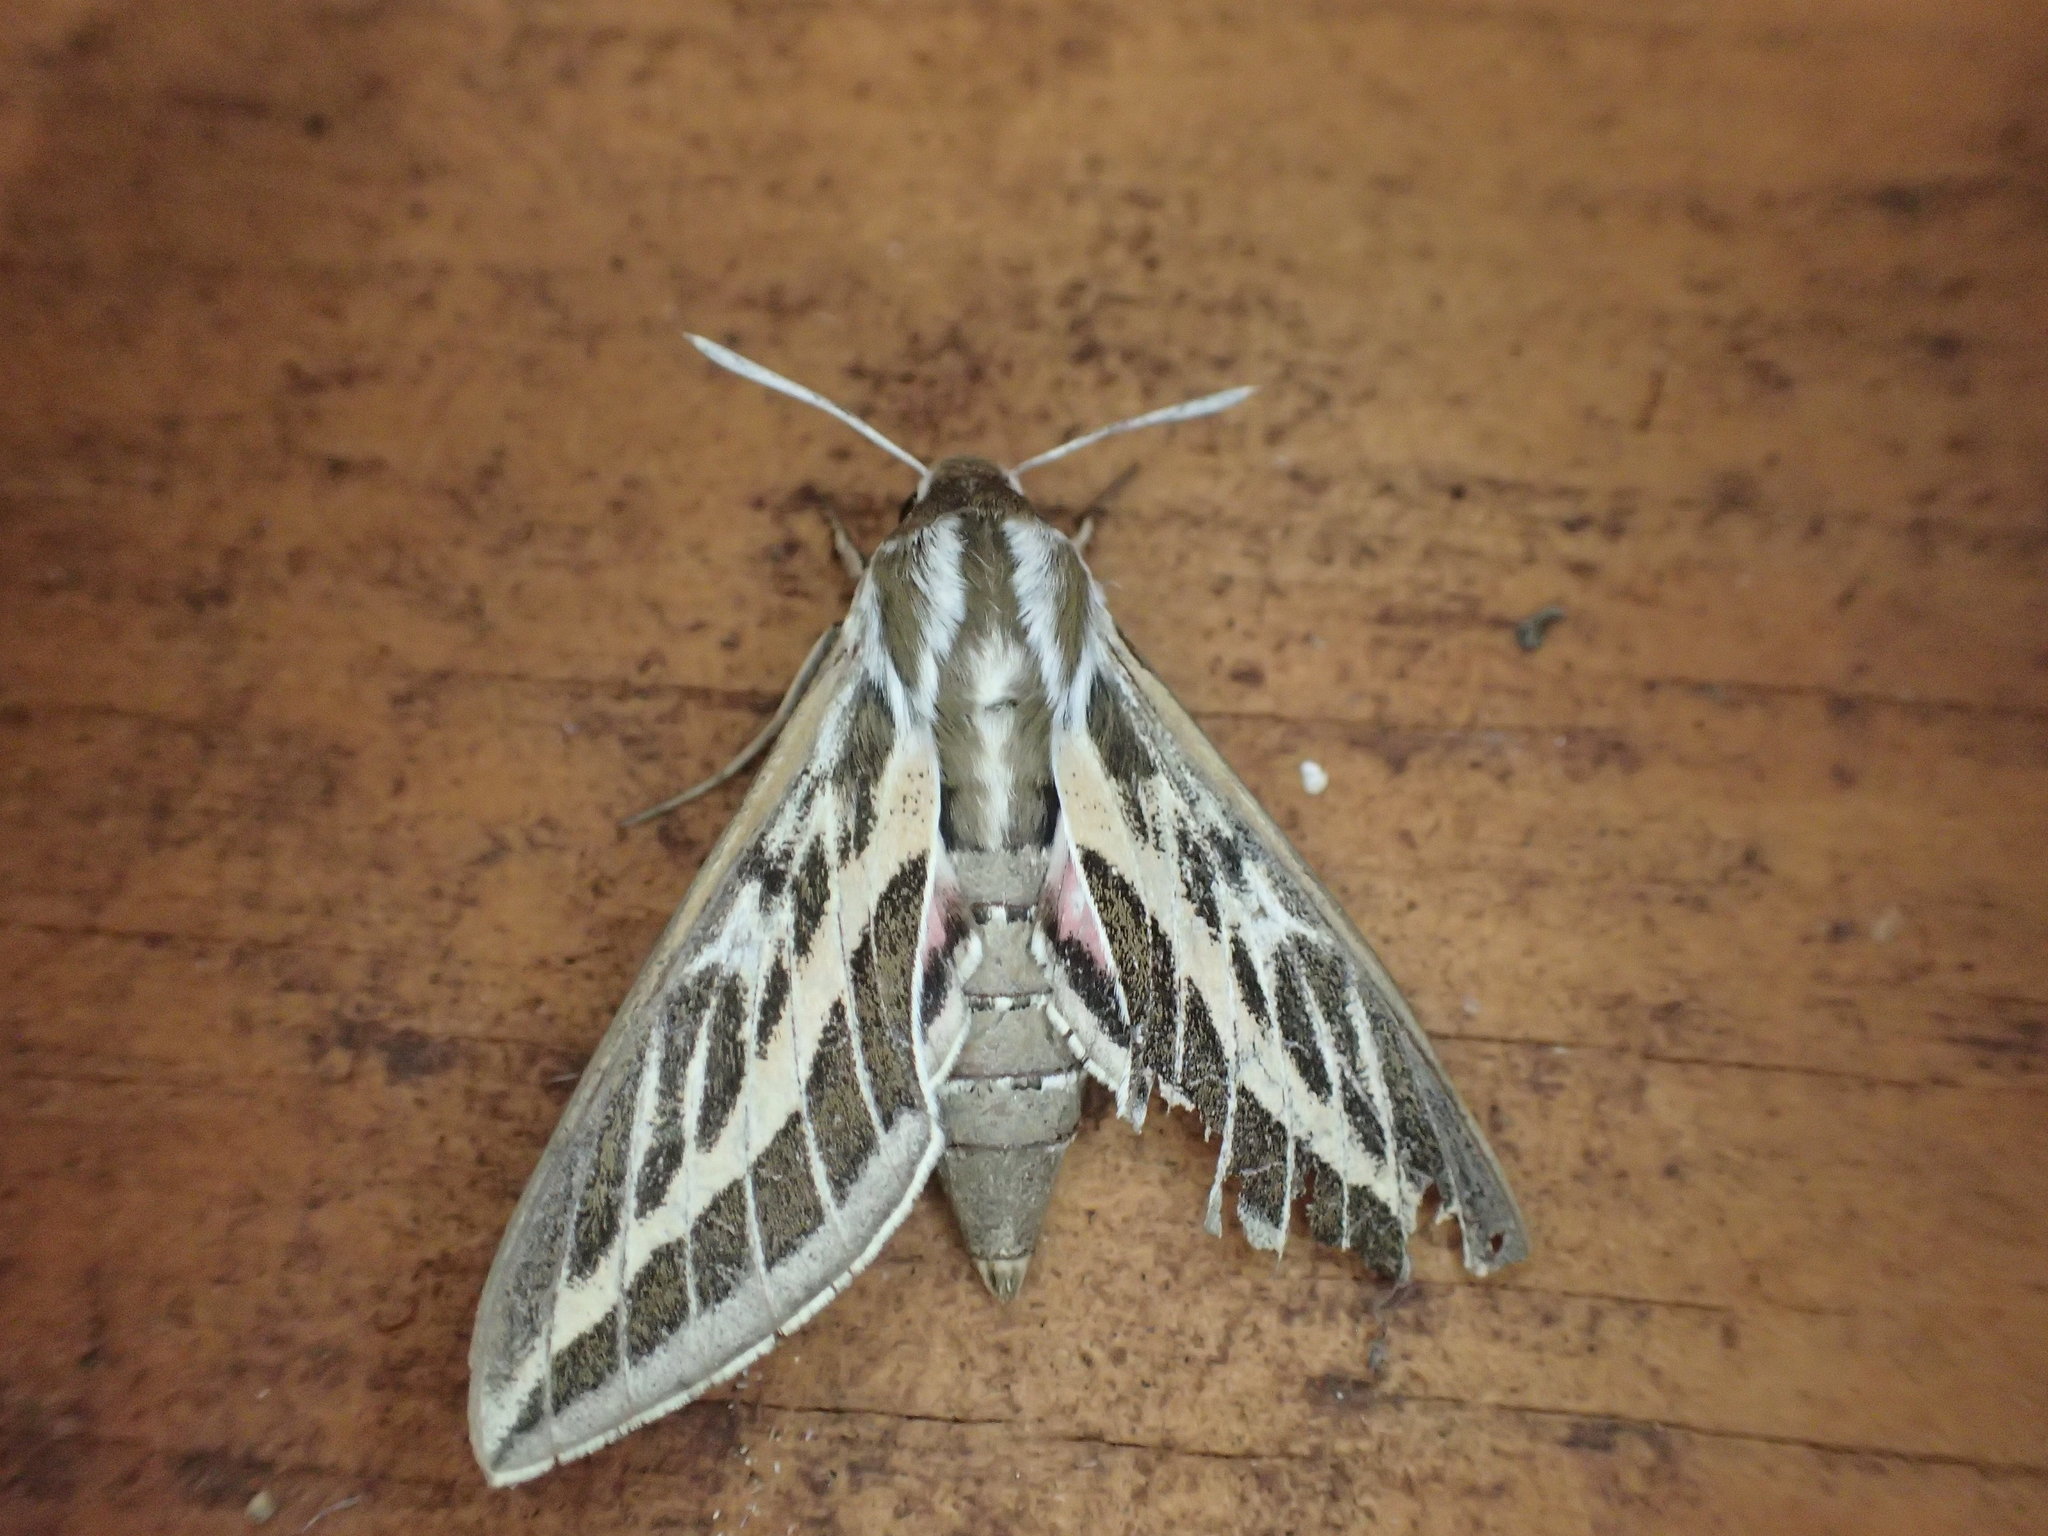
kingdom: Animalia
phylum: Arthropoda
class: Insecta
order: Lepidoptera
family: Sphingidae
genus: Hyles
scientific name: Hyles livornicoides
